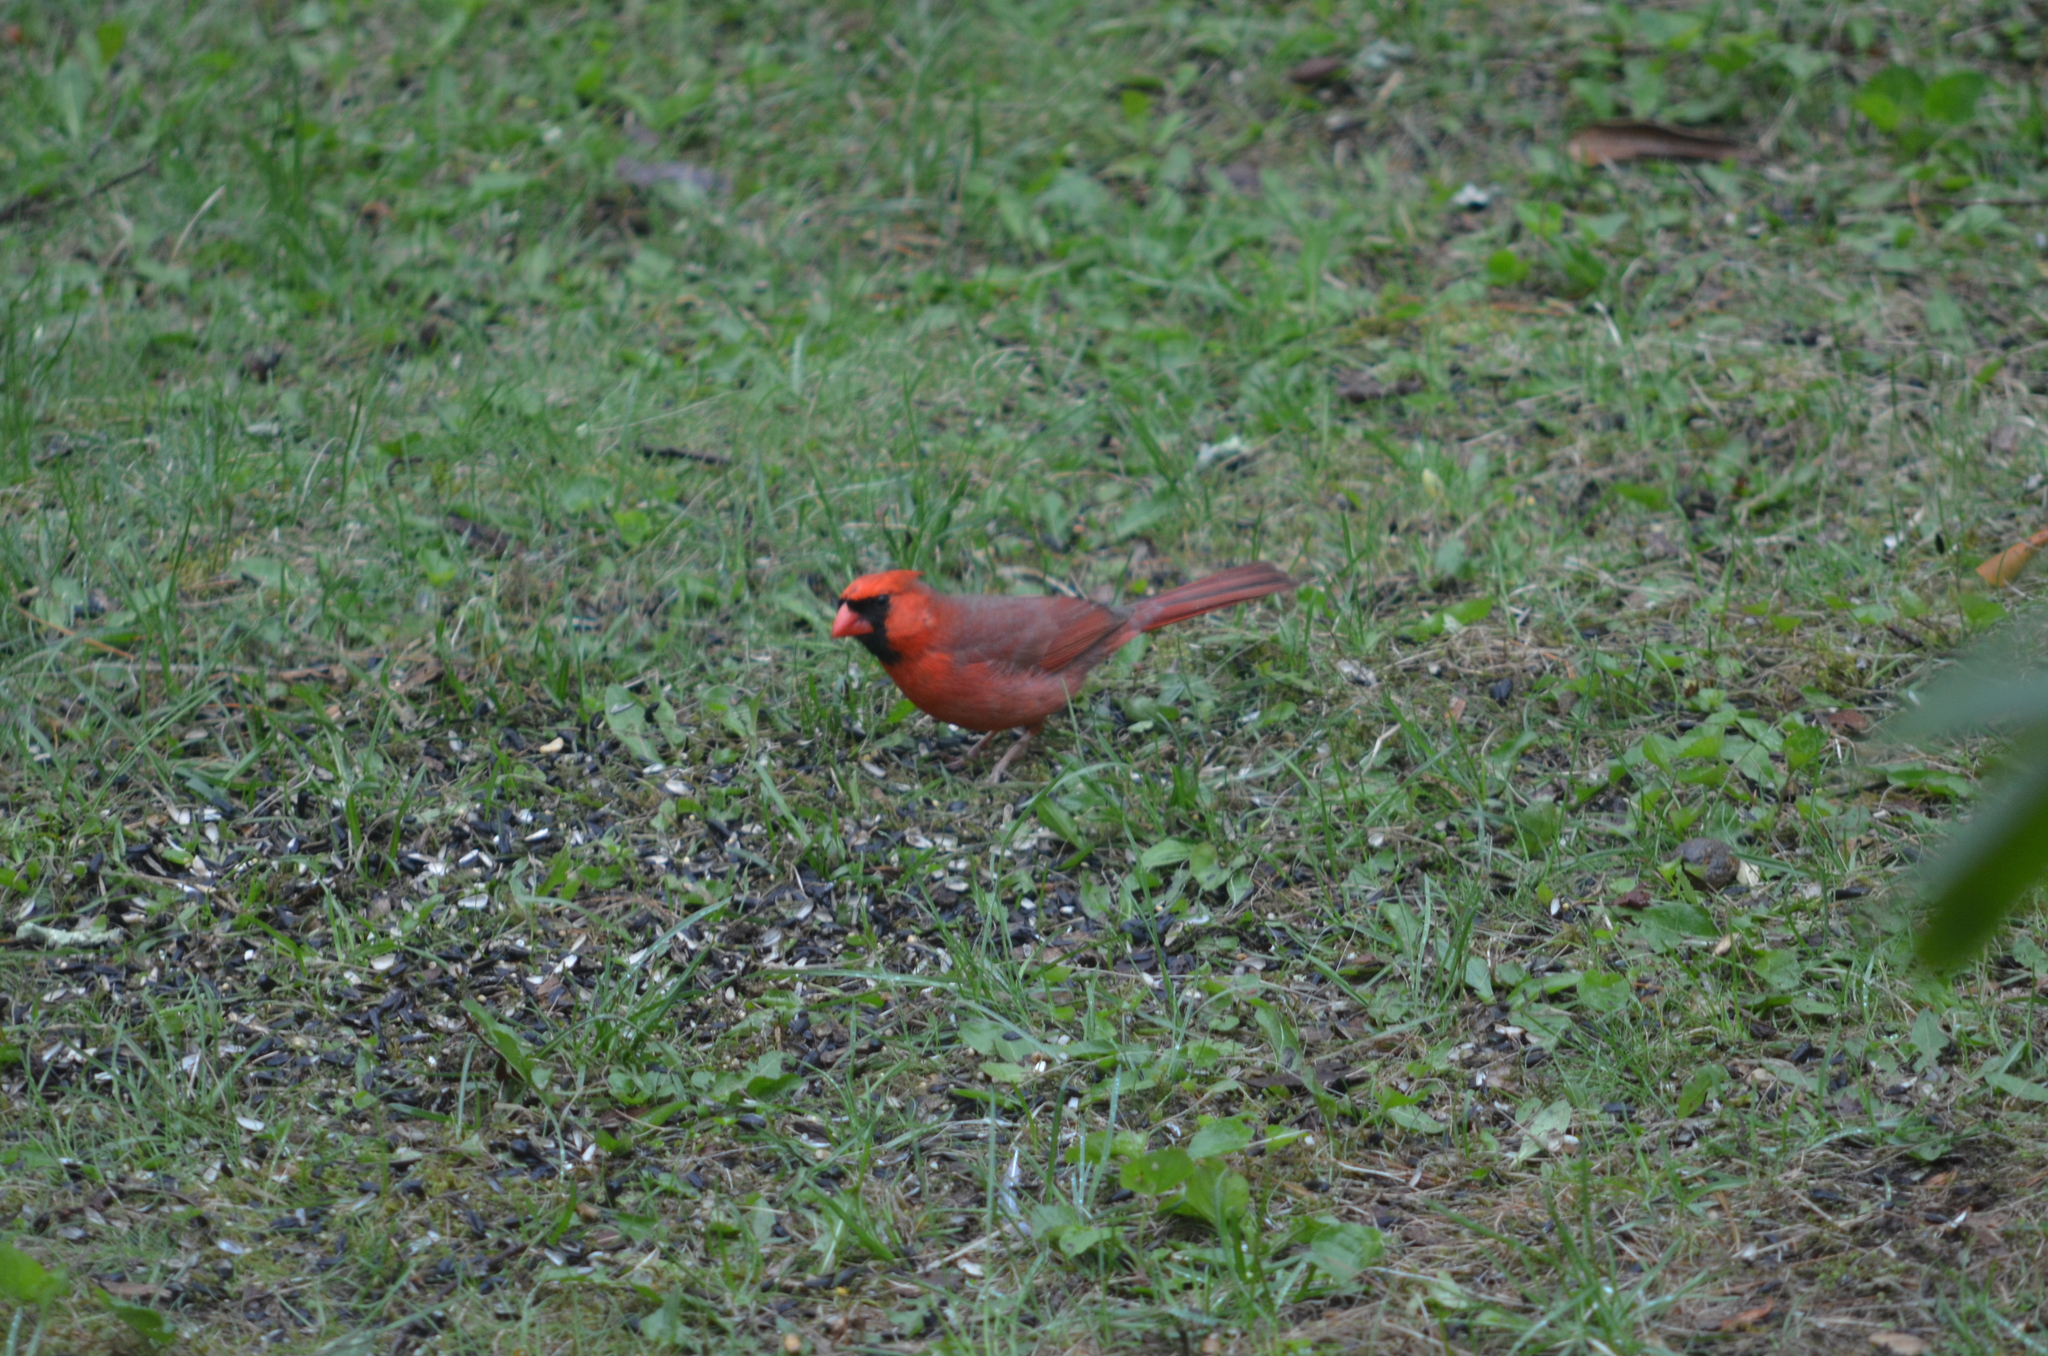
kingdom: Animalia
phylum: Chordata
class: Aves
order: Passeriformes
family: Cardinalidae
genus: Cardinalis
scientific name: Cardinalis cardinalis
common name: Northern cardinal
